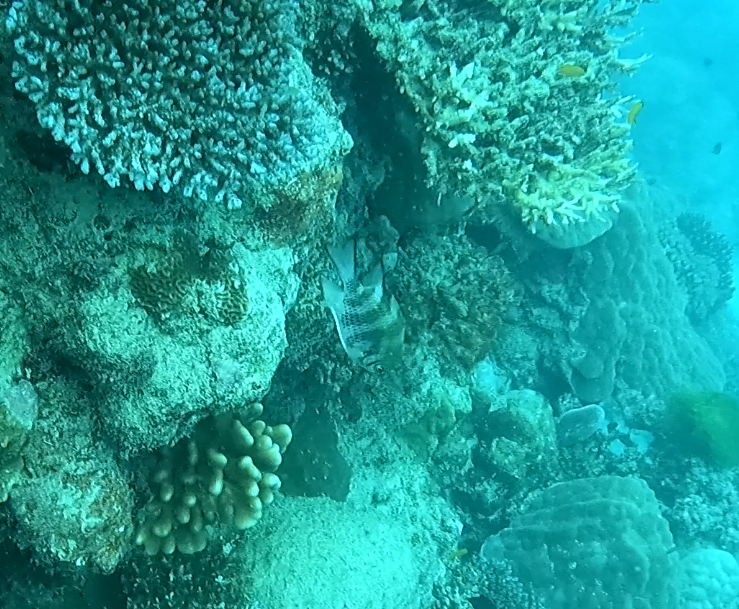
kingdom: Animalia
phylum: Chordata
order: Perciformes
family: Pomacentridae
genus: Amblyglyphidodon
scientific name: Amblyglyphidodon curacao
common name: Staghorn damsel
